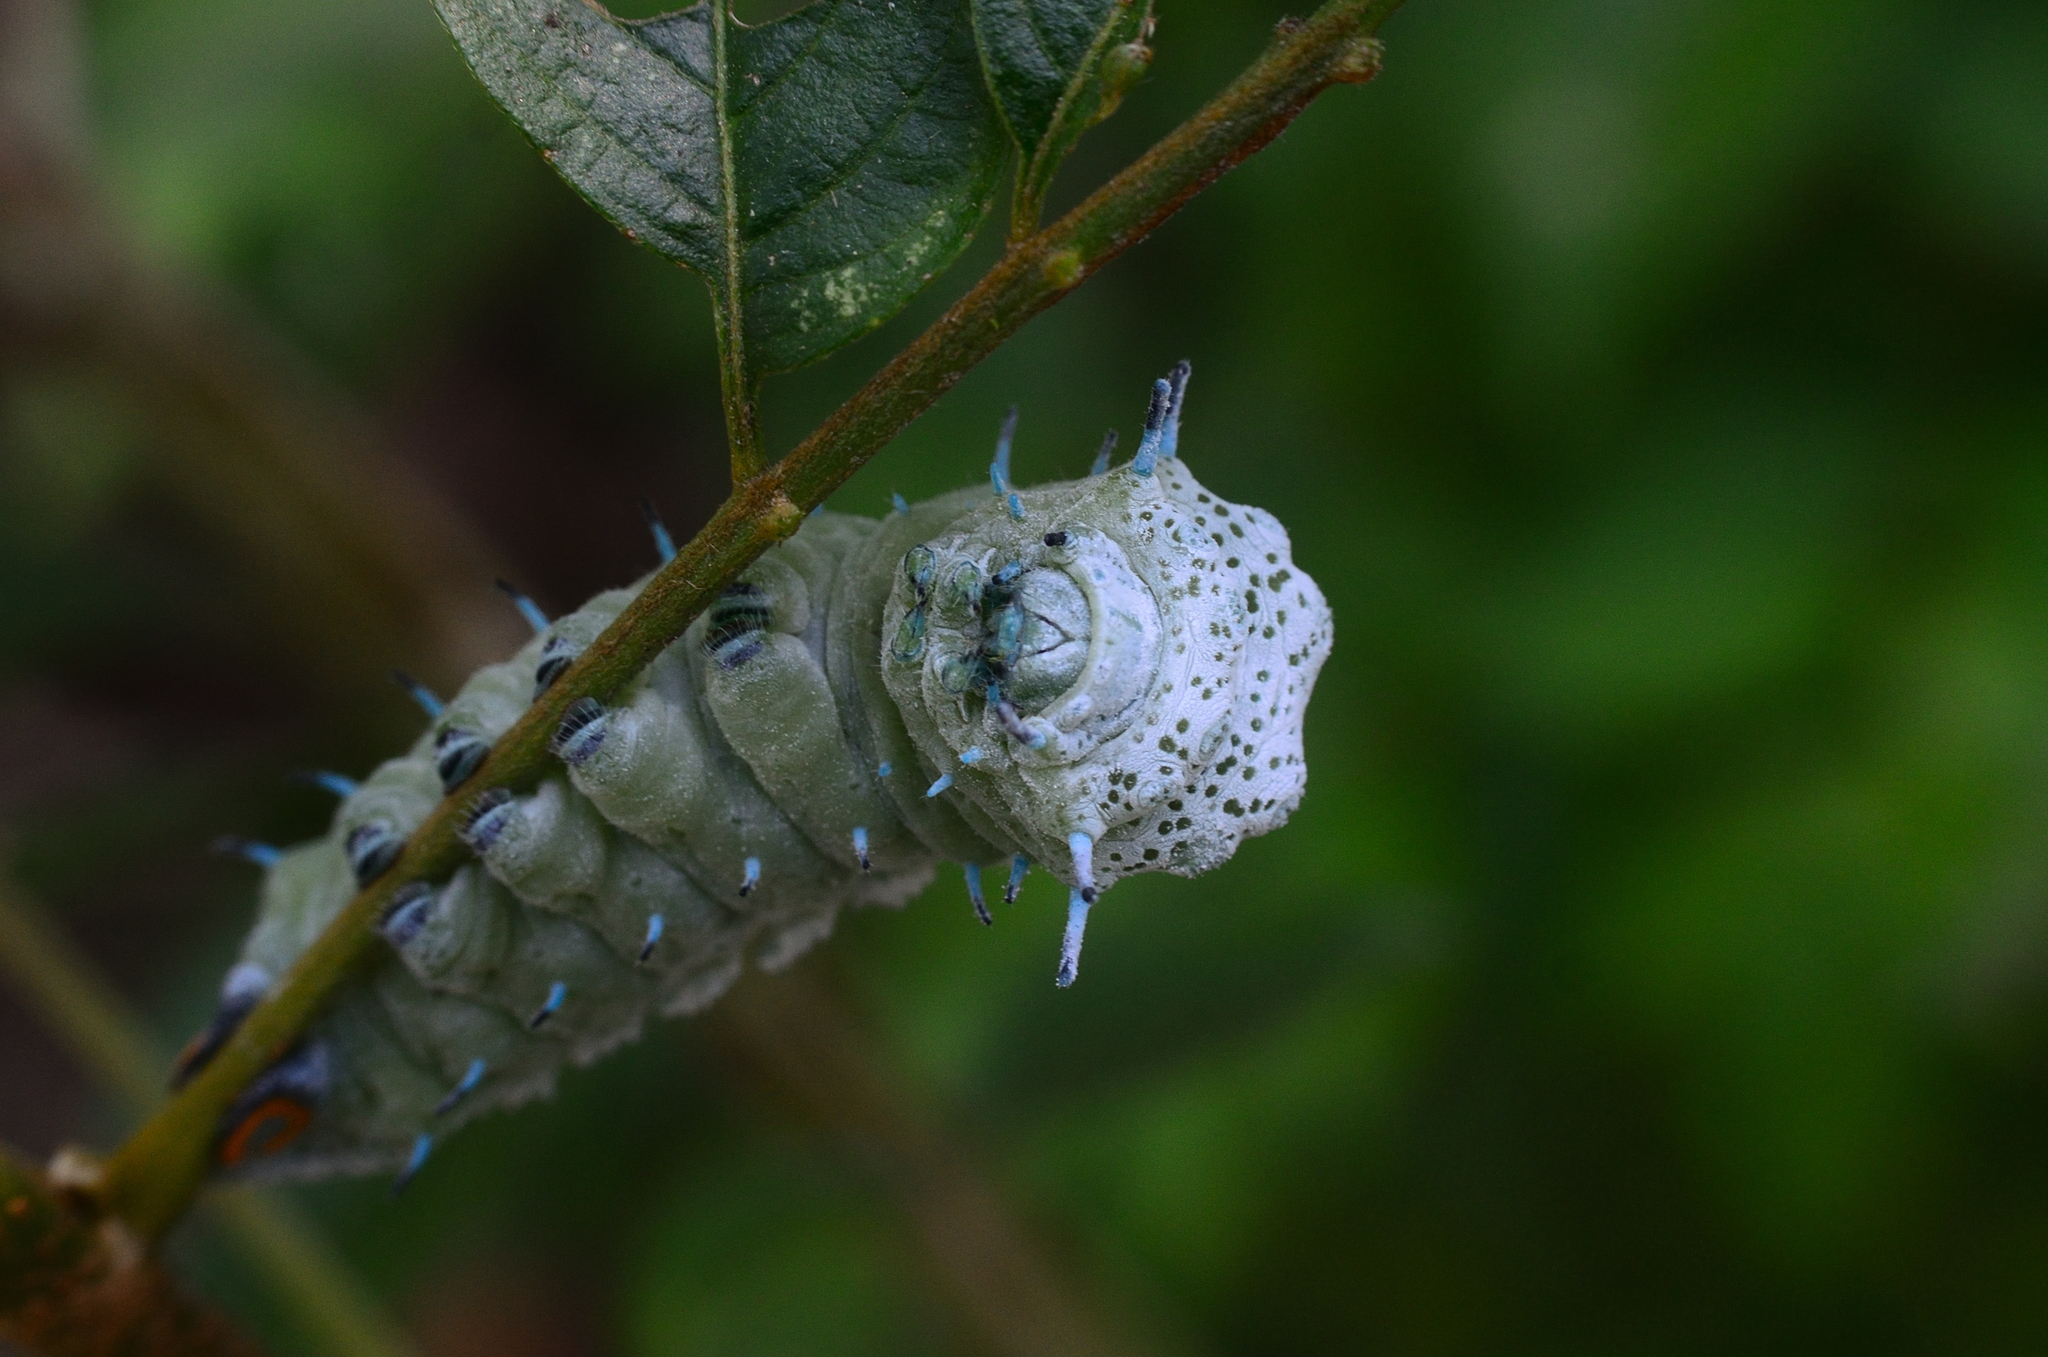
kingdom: Animalia
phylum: Arthropoda
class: Insecta
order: Lepidoptera
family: Saturniidae
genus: Attacus
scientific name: Attacus taprobanis
